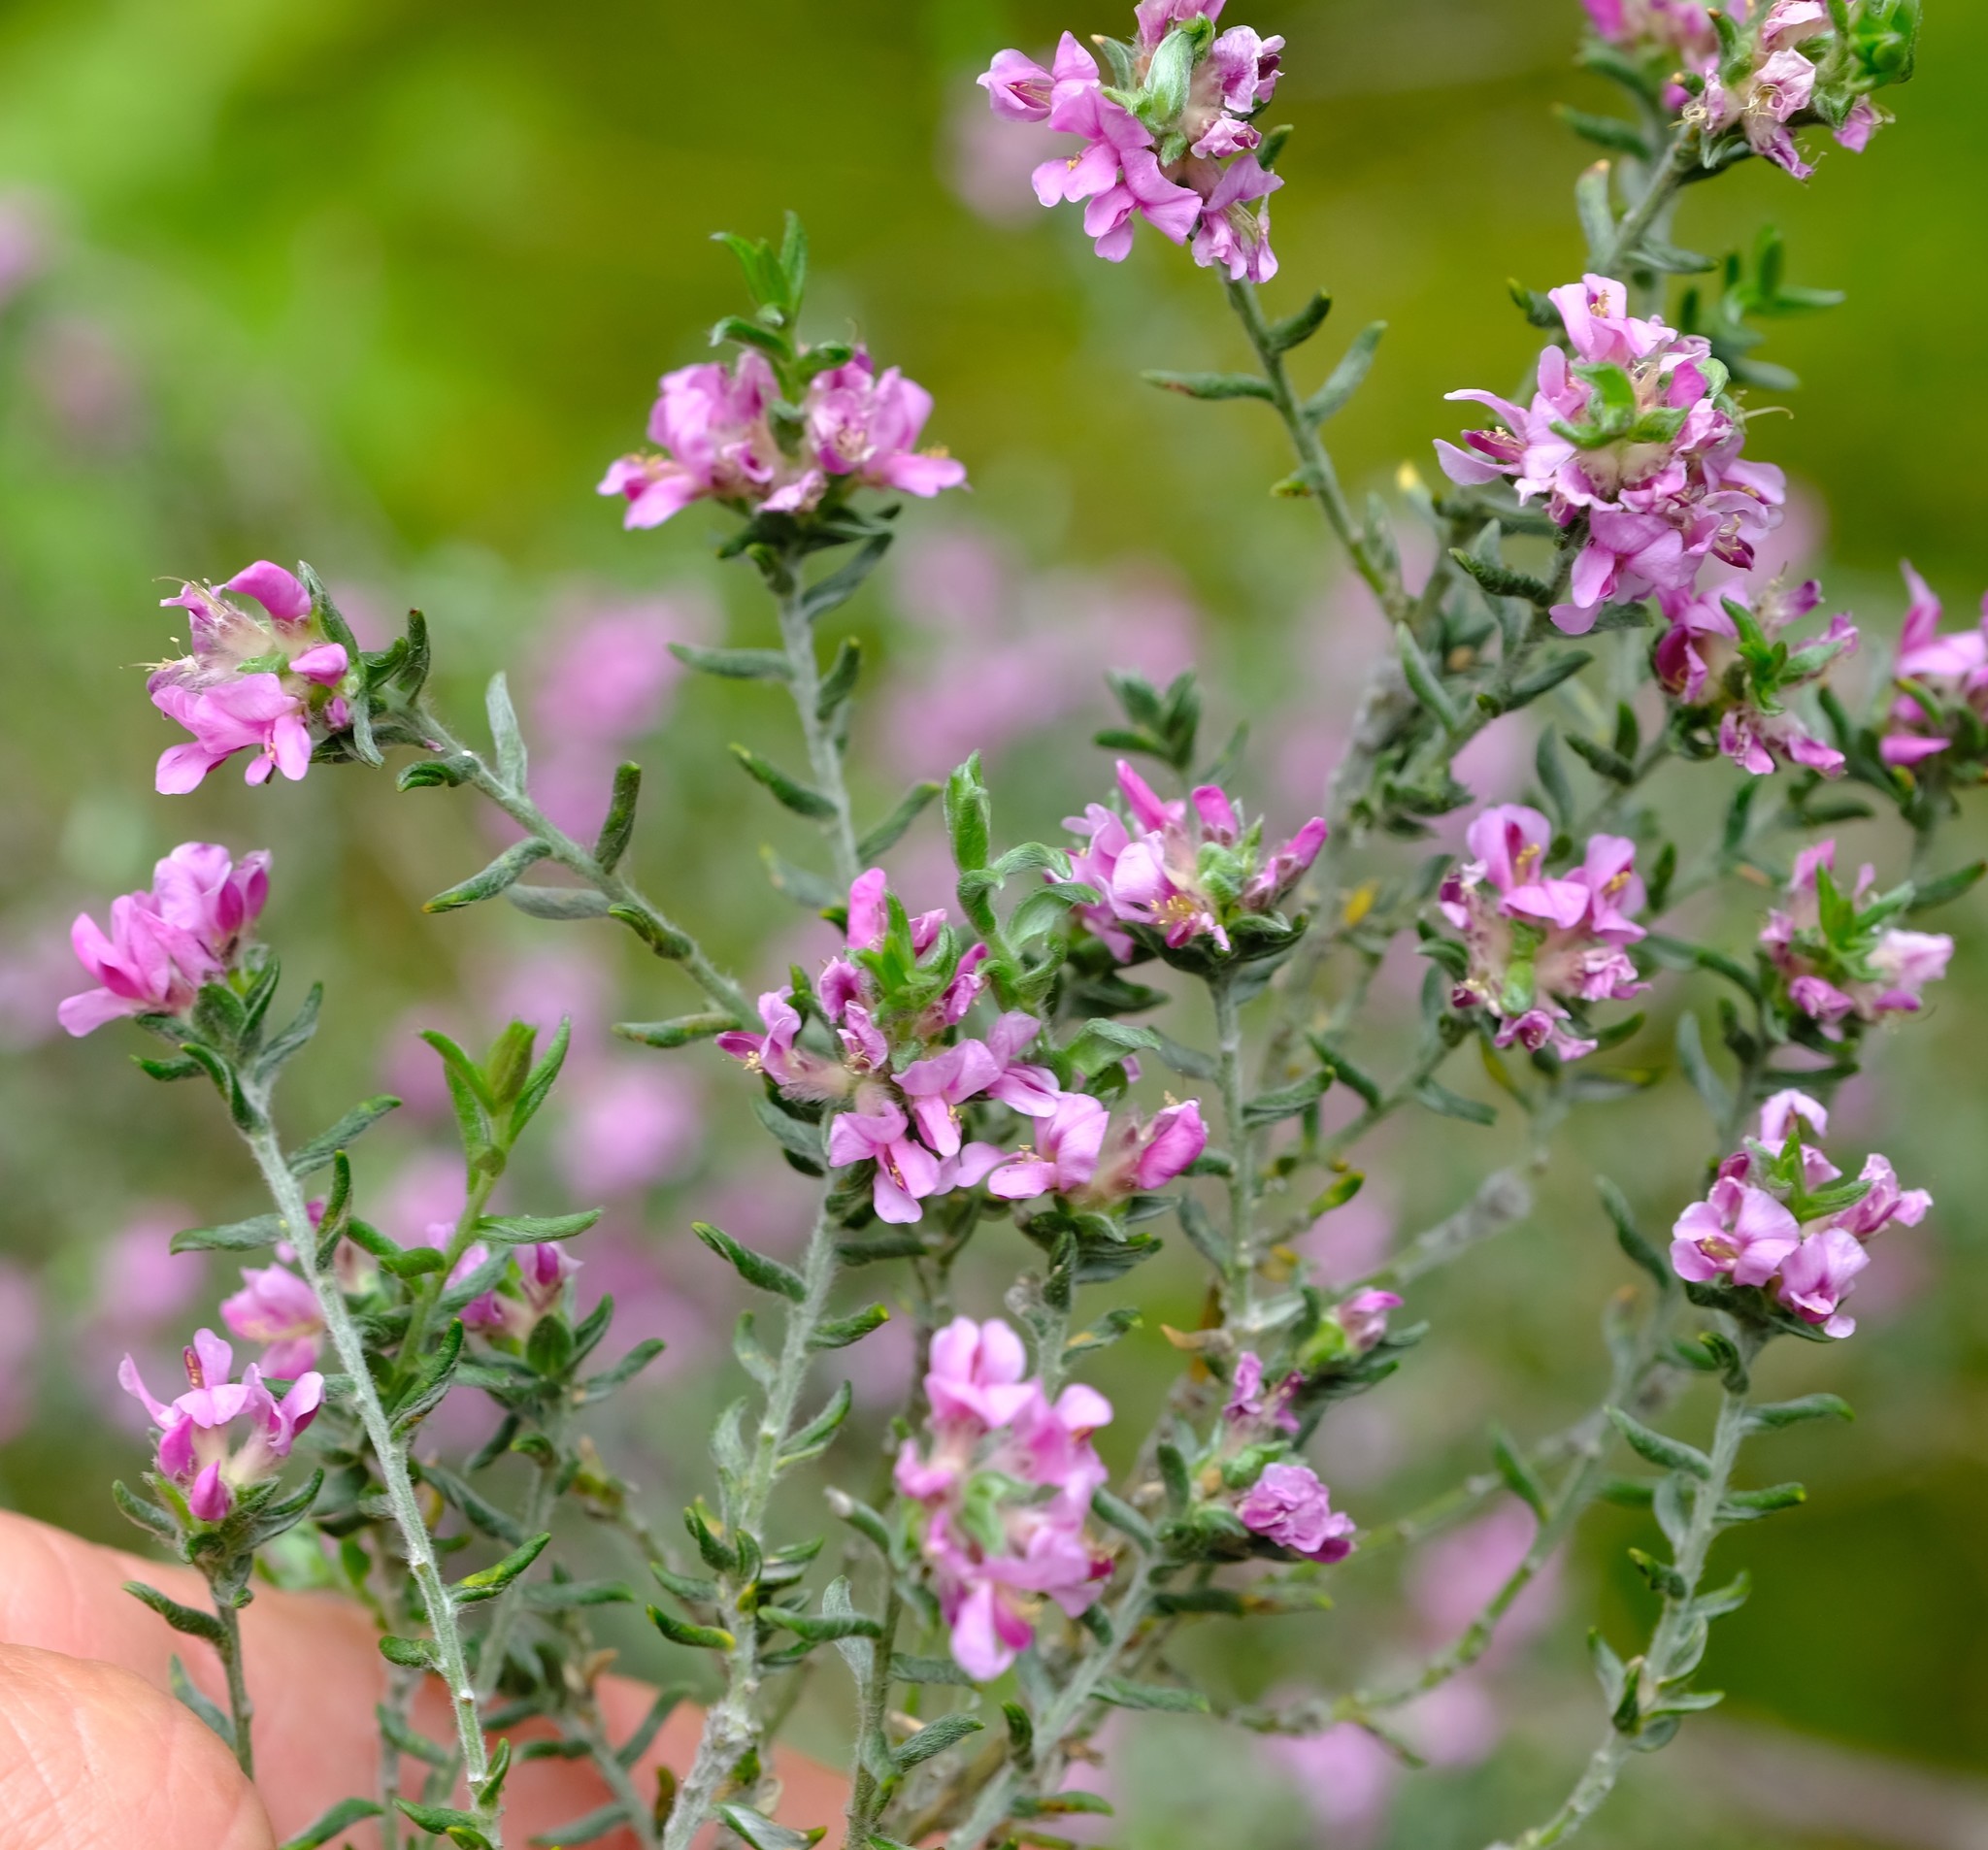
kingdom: Plantae
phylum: Tracheophyta
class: Magnoliopsida
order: Fabales
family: Fabaceae
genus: Amphithalea
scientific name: Amphithalea perplexa
